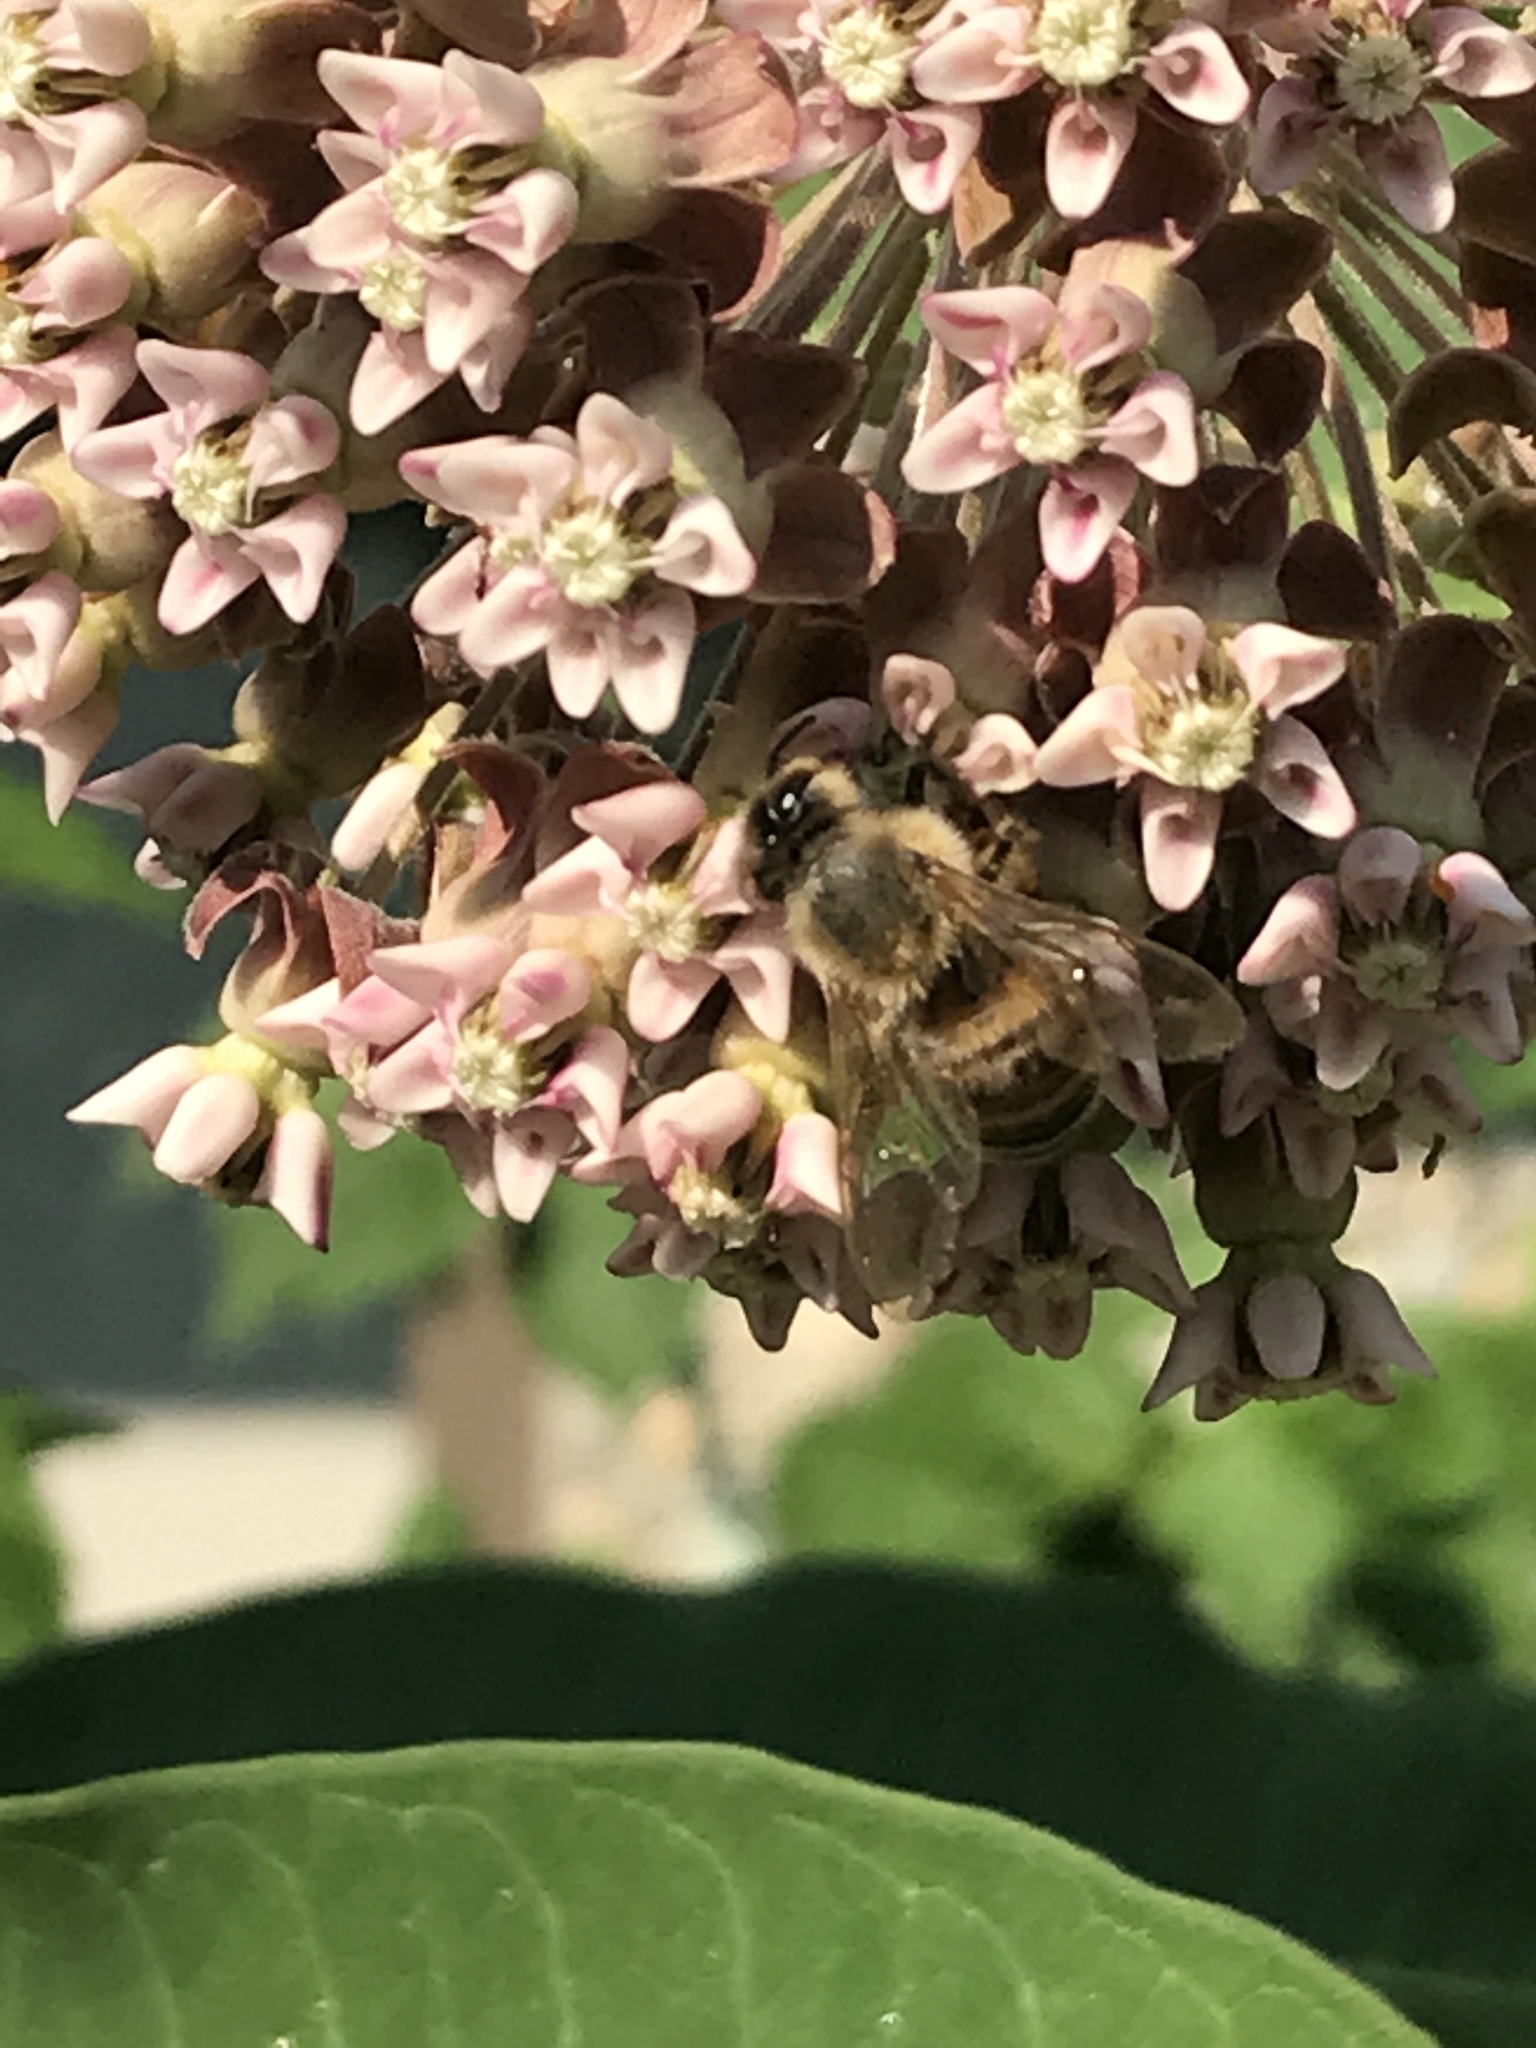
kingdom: Animalia
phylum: Arthropoda
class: Insecta
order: Hymenoptera
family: Apidae
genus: Apis
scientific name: Apis mellifera
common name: Honey bee
